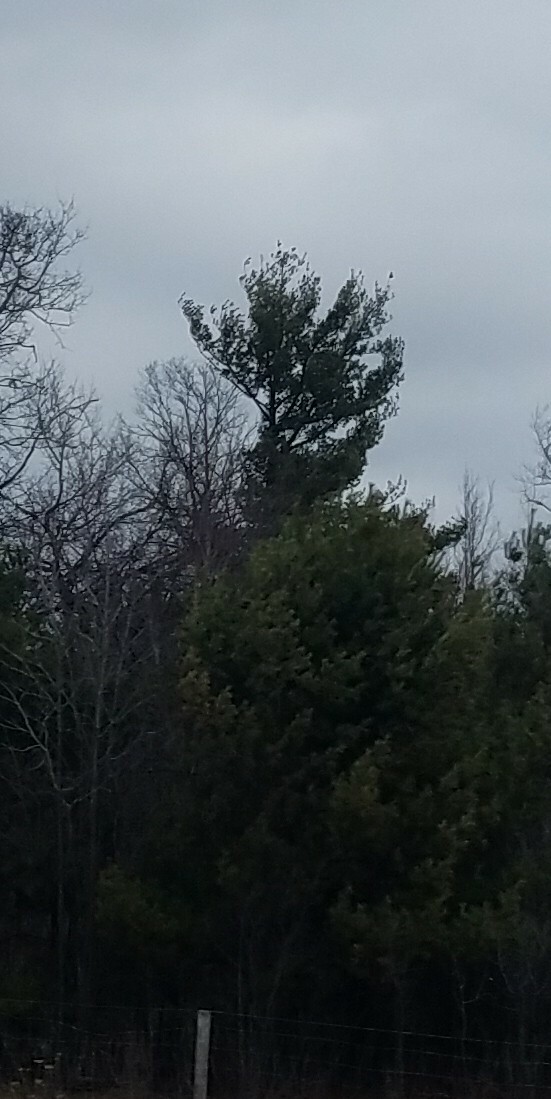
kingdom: Plantae
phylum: Tracheophyta
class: Pinopsida
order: Pinales
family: Pinaceae
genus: Pinus
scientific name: Pinus strobus
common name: Weymouth pine
